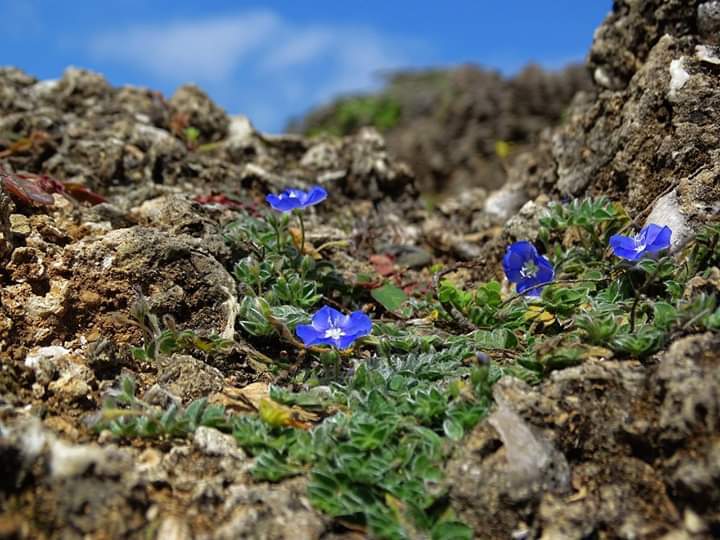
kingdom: Plantae
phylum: Tracheophyta
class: Magnoliopsida
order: Solanales
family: Convolvulaceae
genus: Evolvulus
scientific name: Evolvulus alsinoides
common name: Slender dwarf morning-glory
